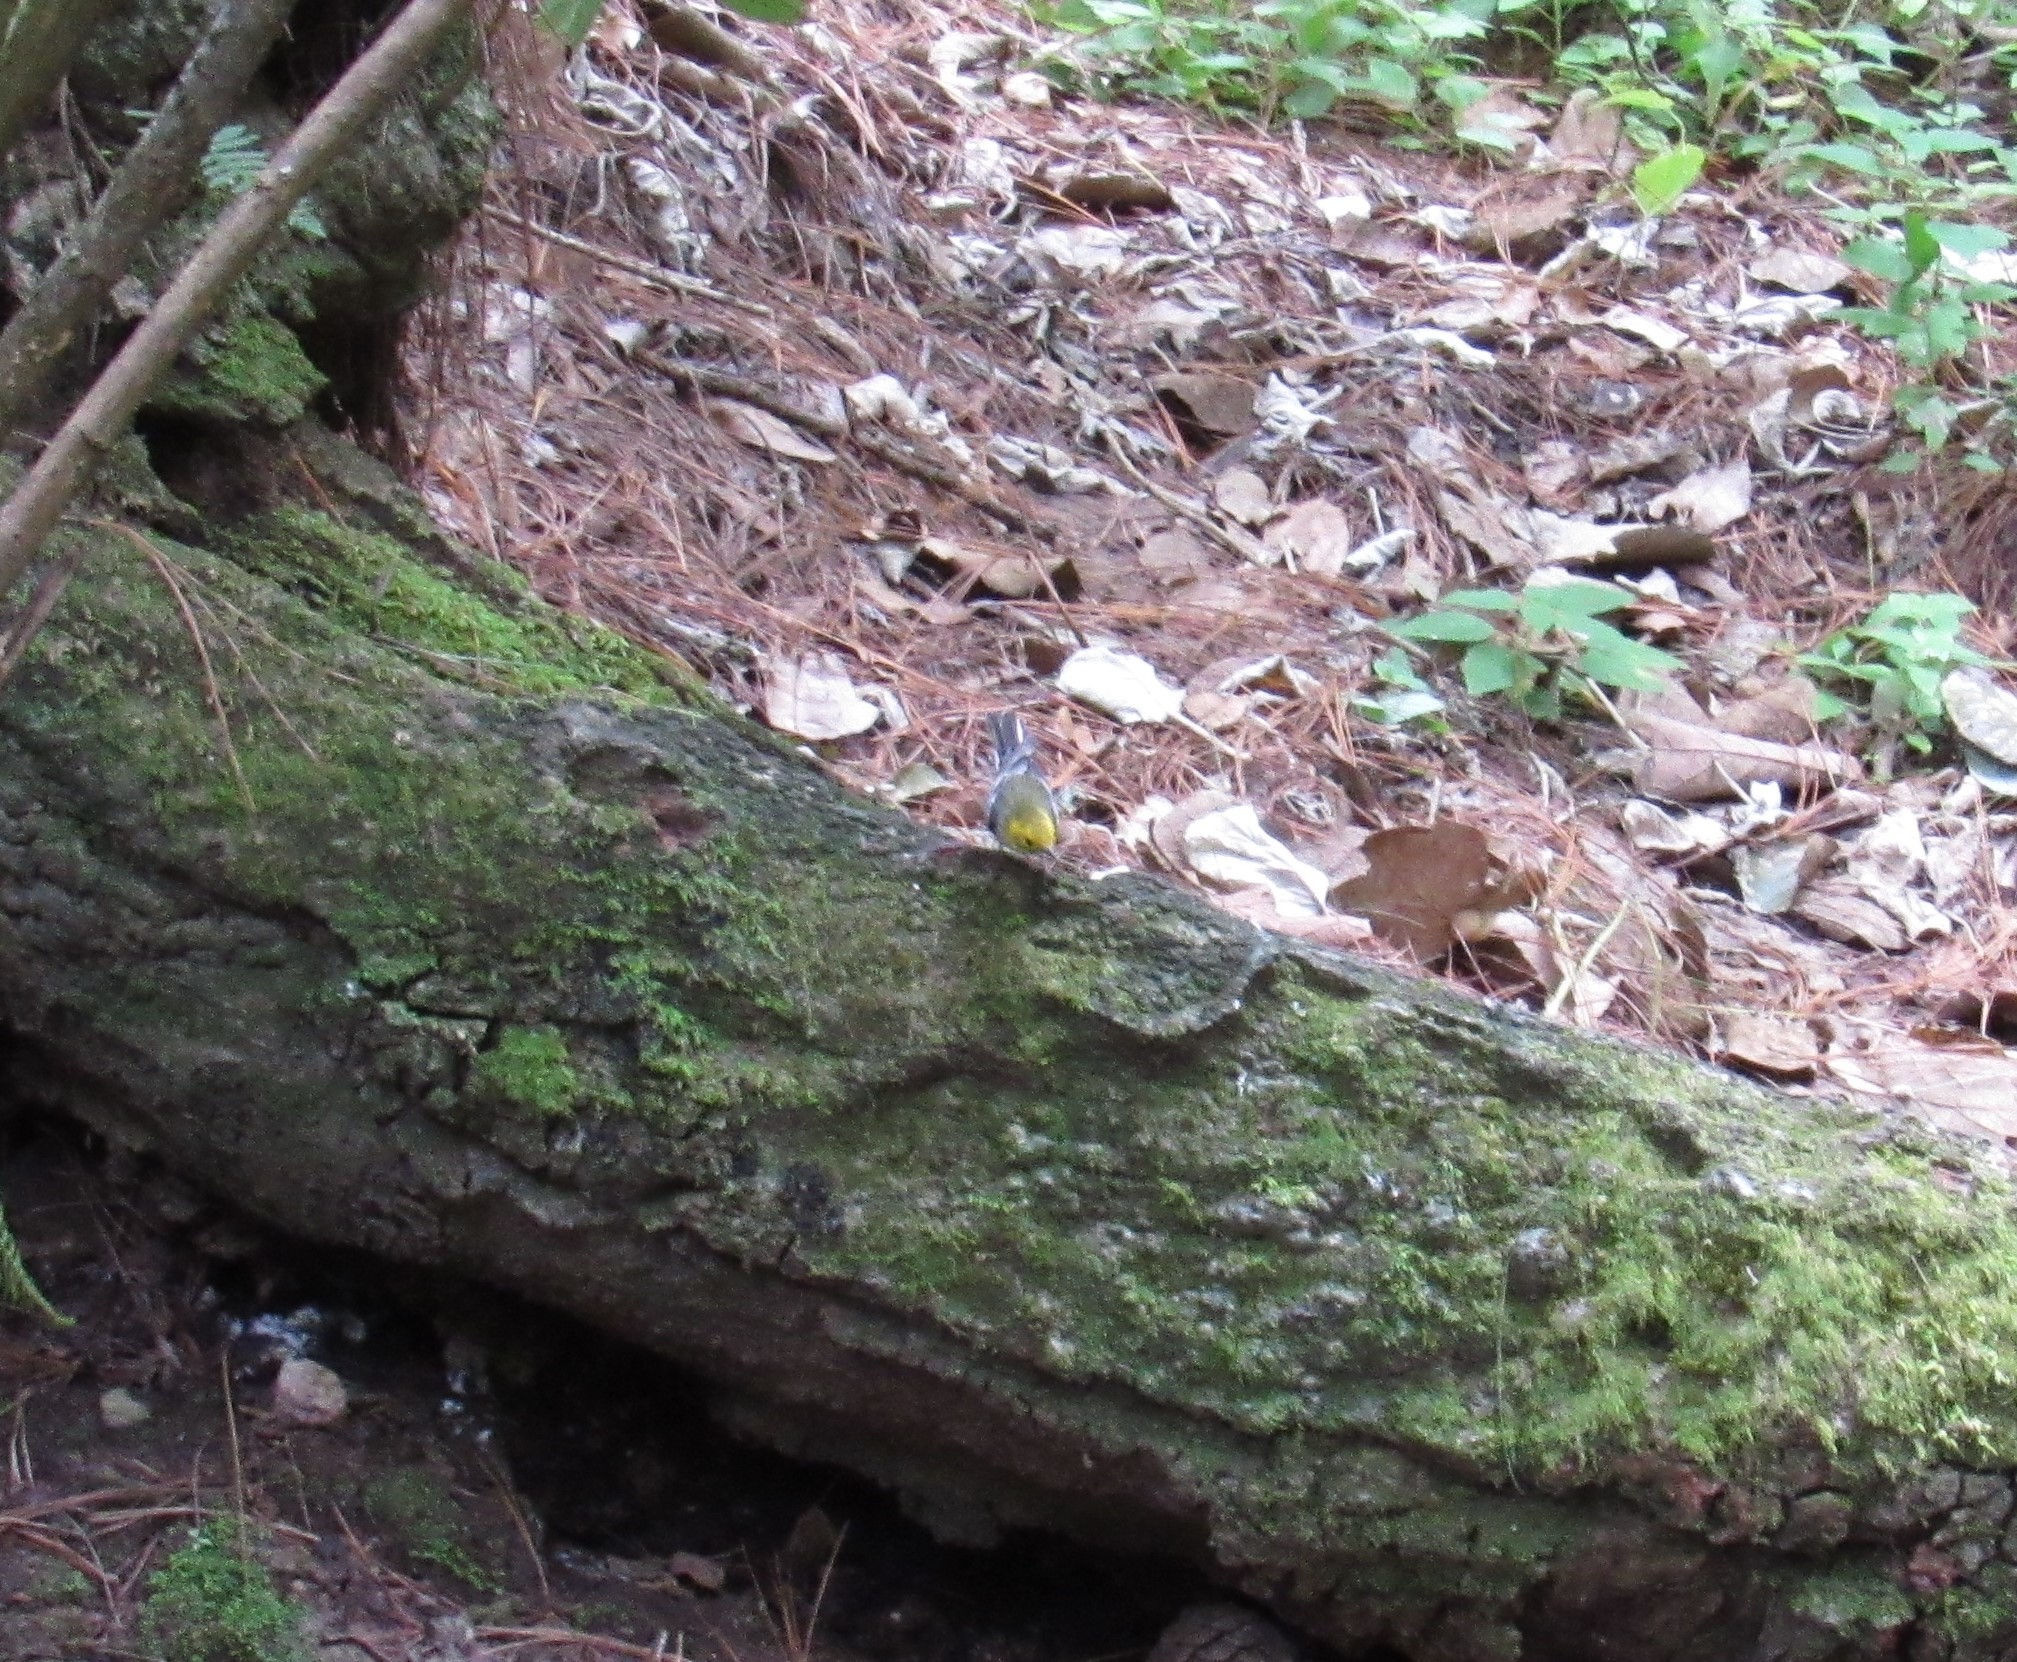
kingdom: Animalia
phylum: Chordata
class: Aves
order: Passeriformes
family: Parulidae
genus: Setophaga
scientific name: Setophaga occidentalis
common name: Hermit warbler
